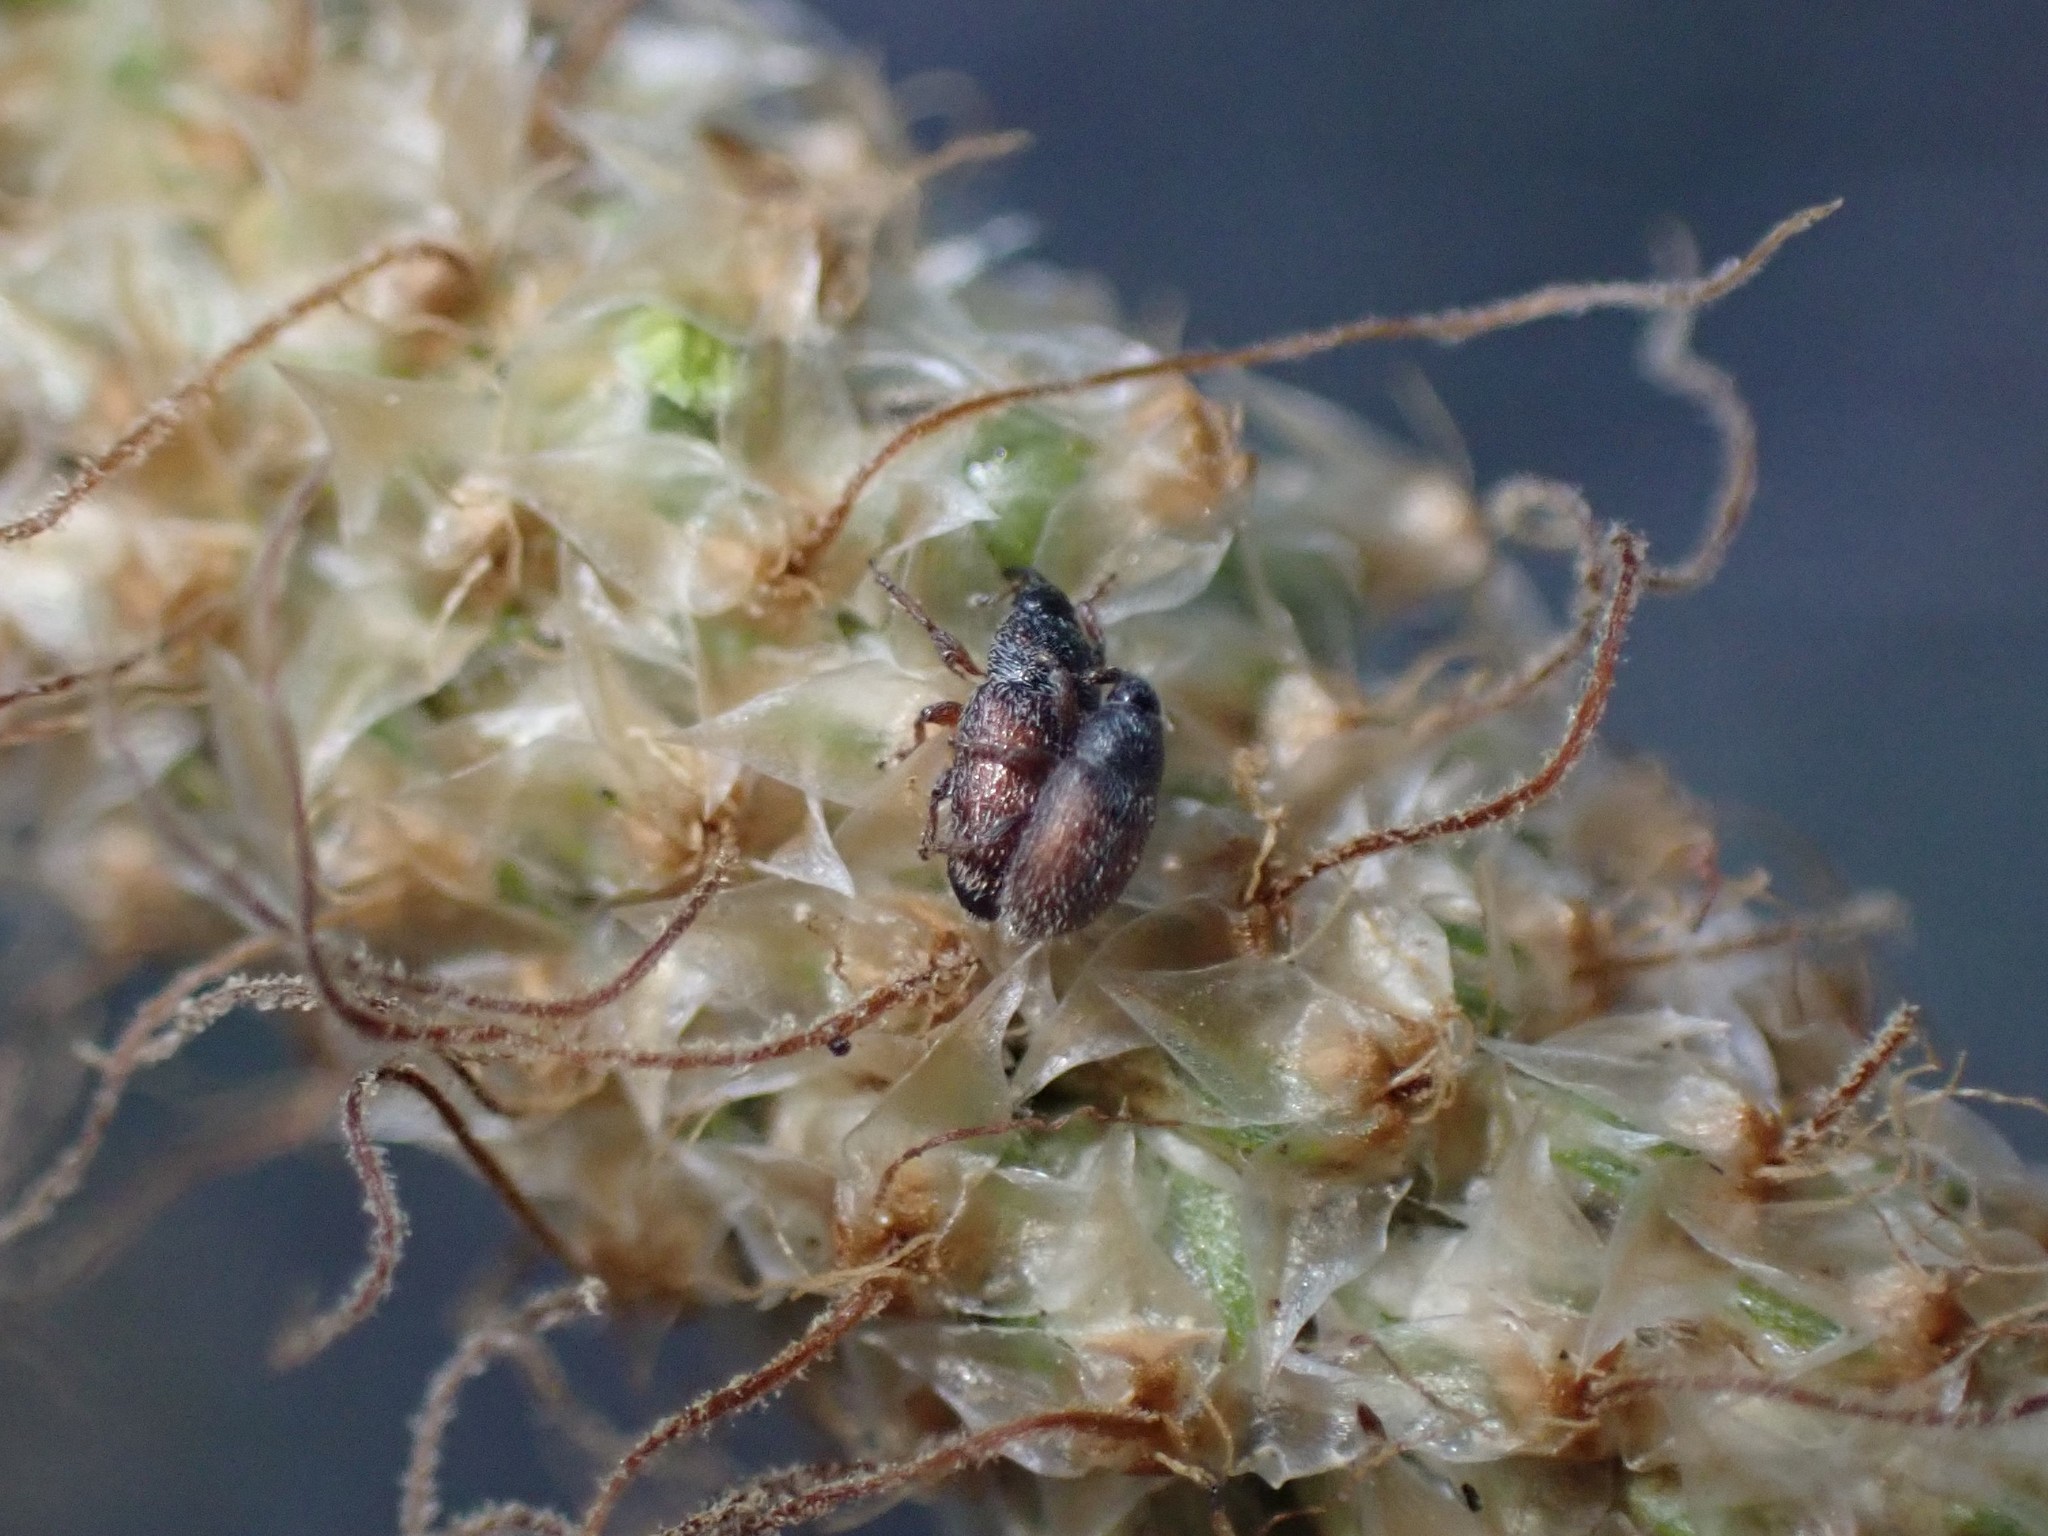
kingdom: Animalia
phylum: Arthropoda
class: Insecta
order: Coleoptera
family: Curculionidae
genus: Mecinus
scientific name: Mecinus pascuorum
